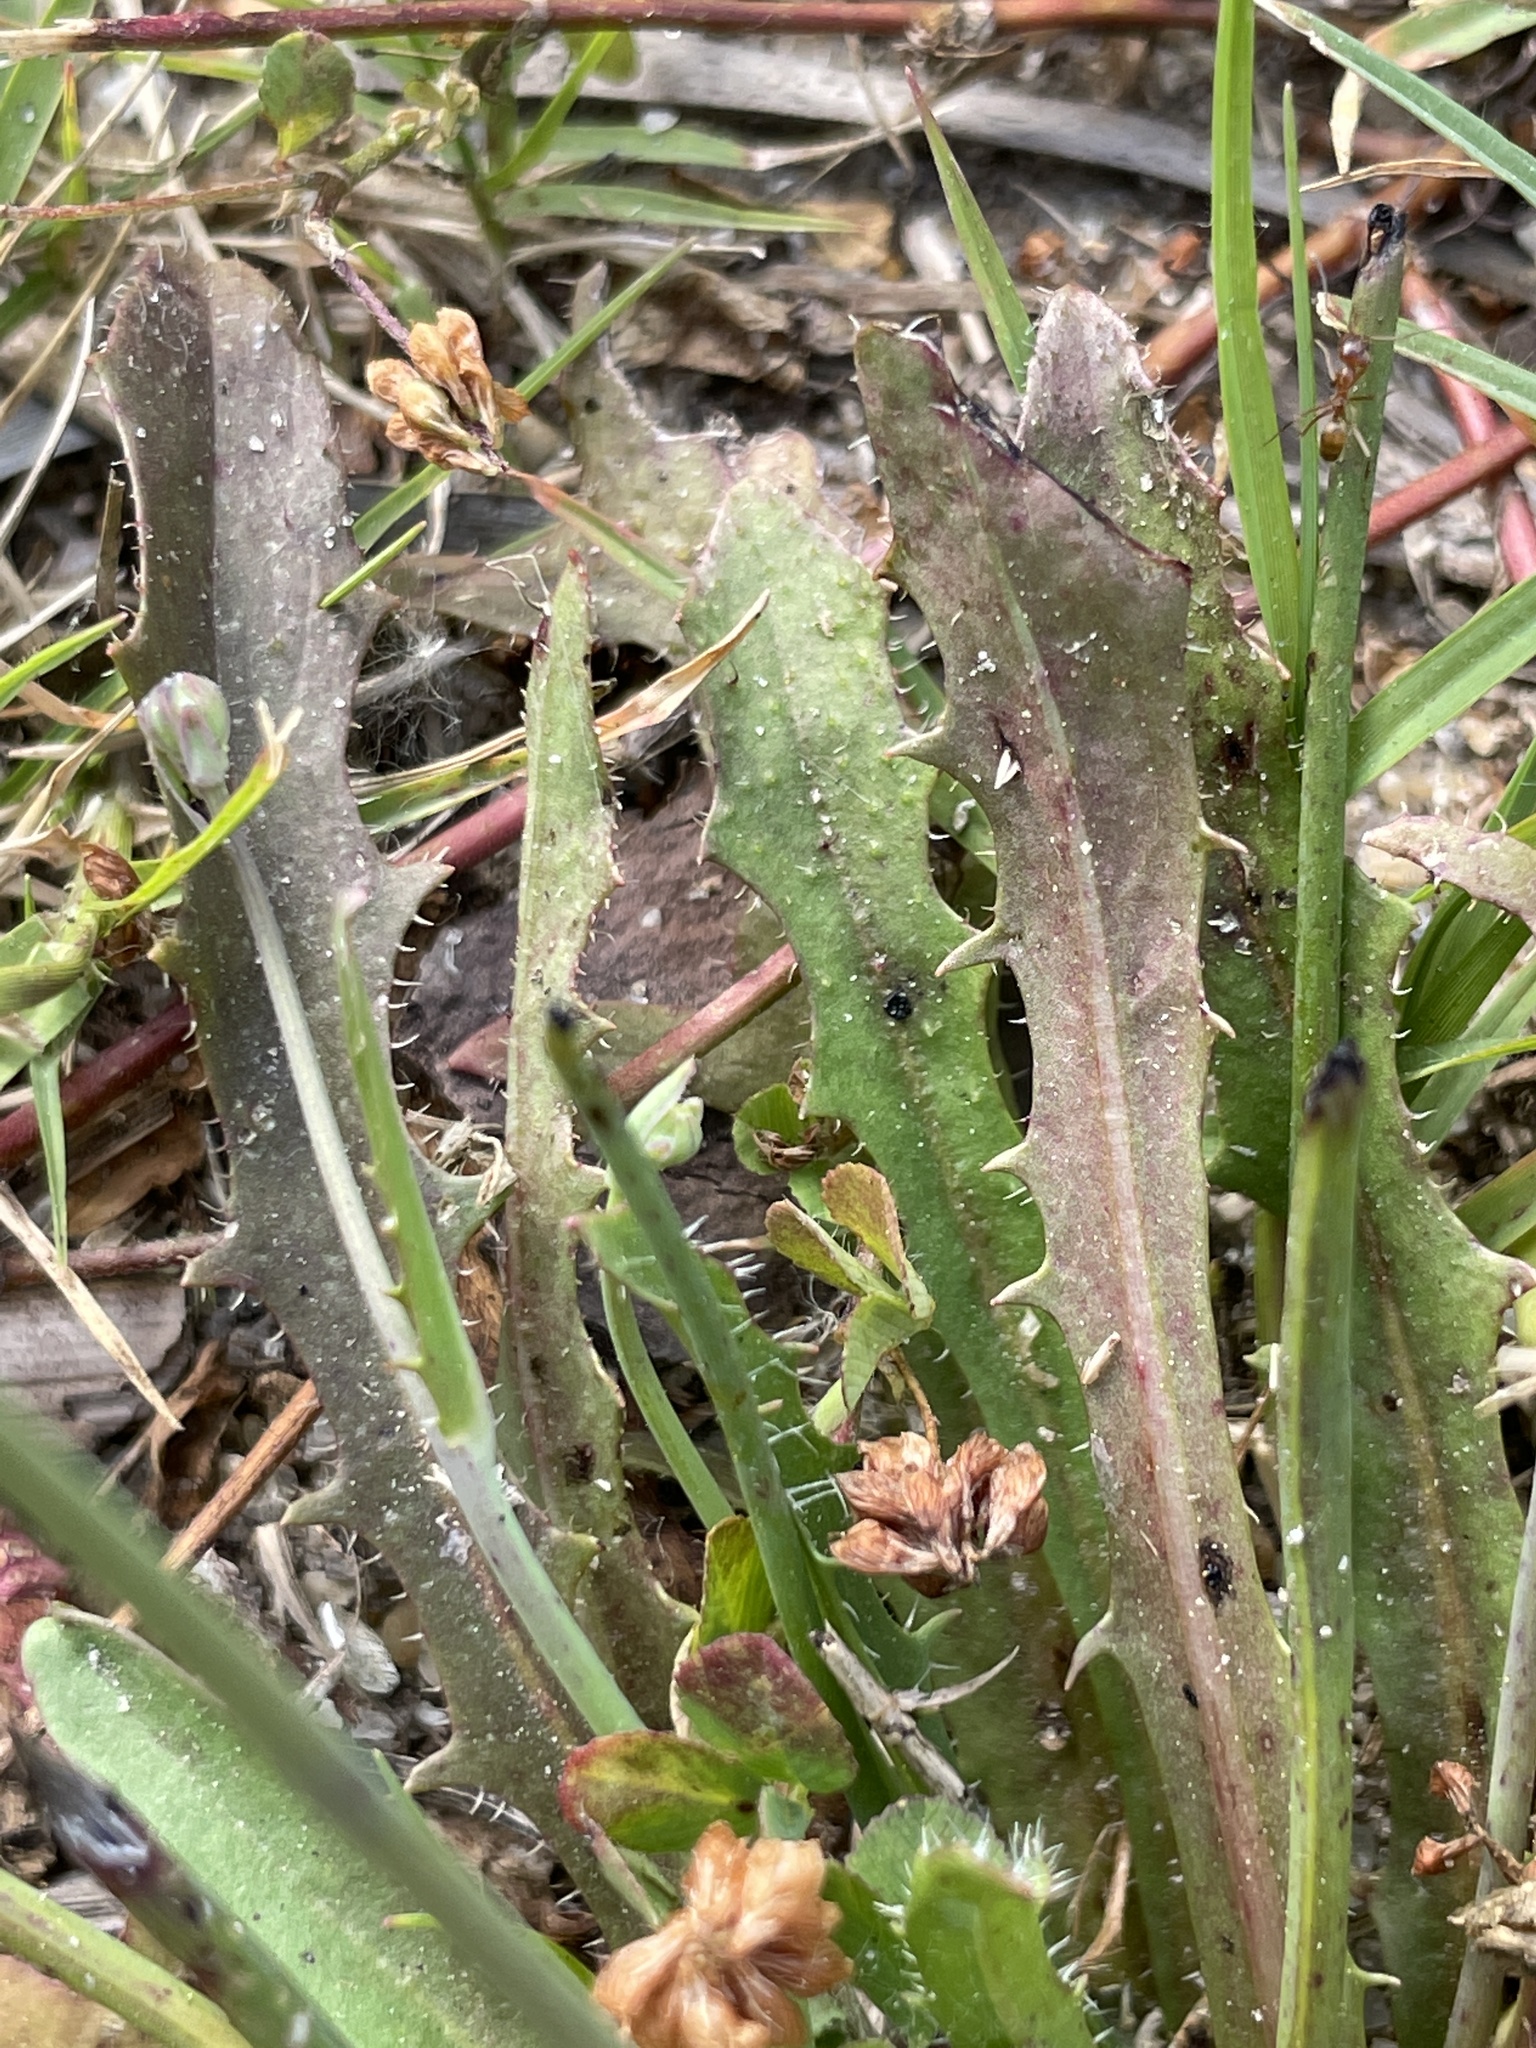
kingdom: Plantae
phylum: Tracheophyta
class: Magnoliopsida
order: Asterales
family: Asteraceae
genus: Hypochaeris
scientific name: Hypochaeris glabra
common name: Smooth catsear
